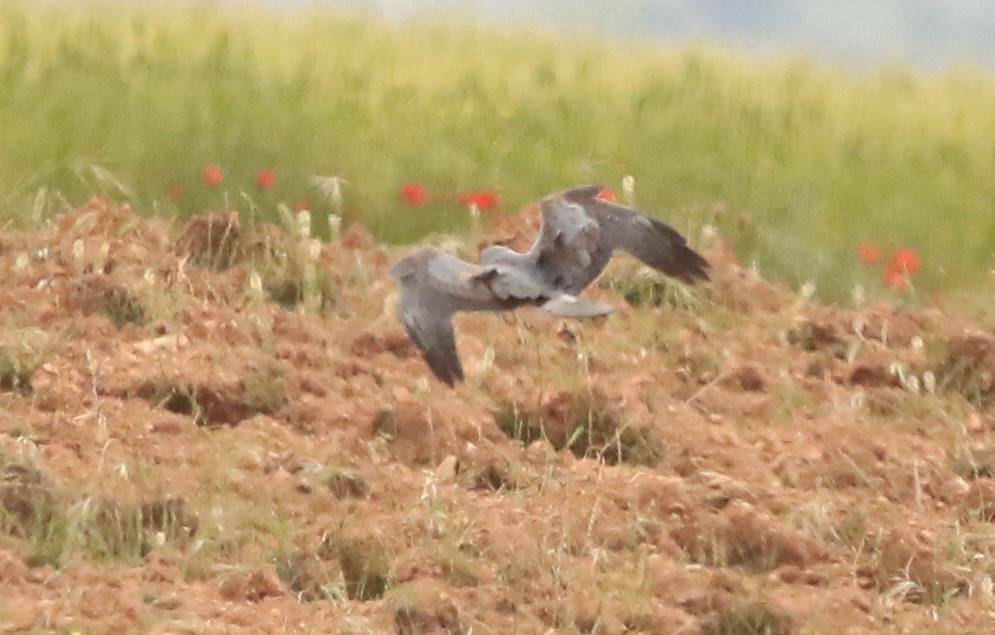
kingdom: Animalia
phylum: Chordata
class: Aves
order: Accipitriformes
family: Accipitridae
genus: Circus
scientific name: Circus pygargus
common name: Montagu's harrier
